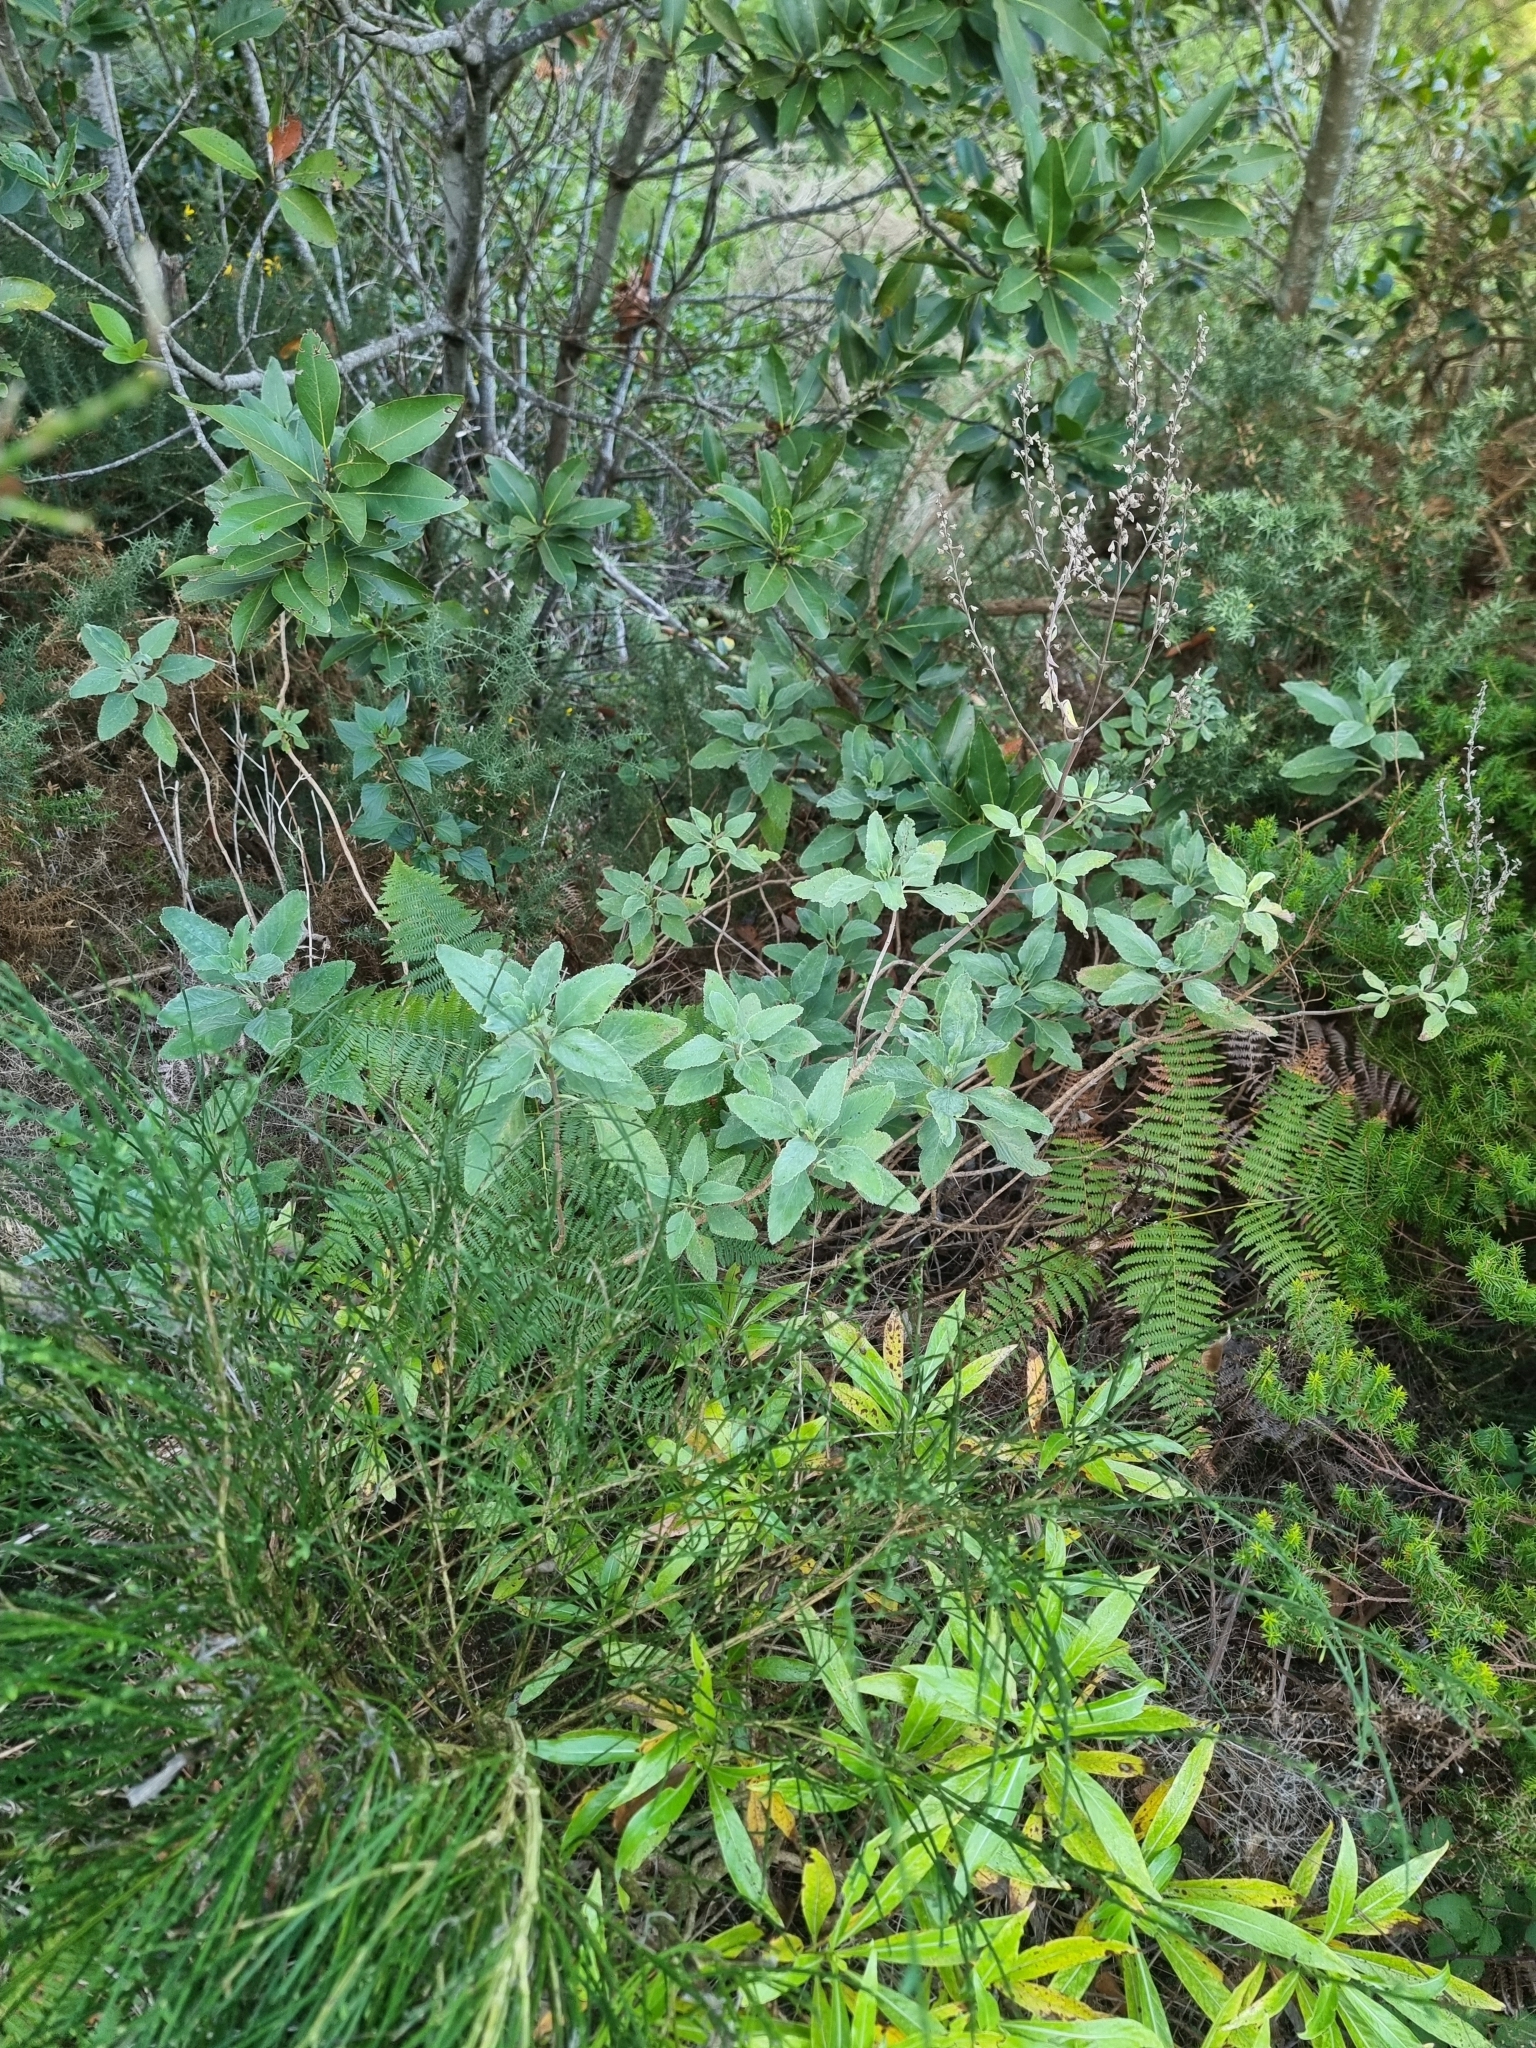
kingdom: Plantae
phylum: Tracheophyta
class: Magnoliopsida
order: Lamiales
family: Lamiaceae
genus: Teucrium
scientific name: Teucrium betonicum
